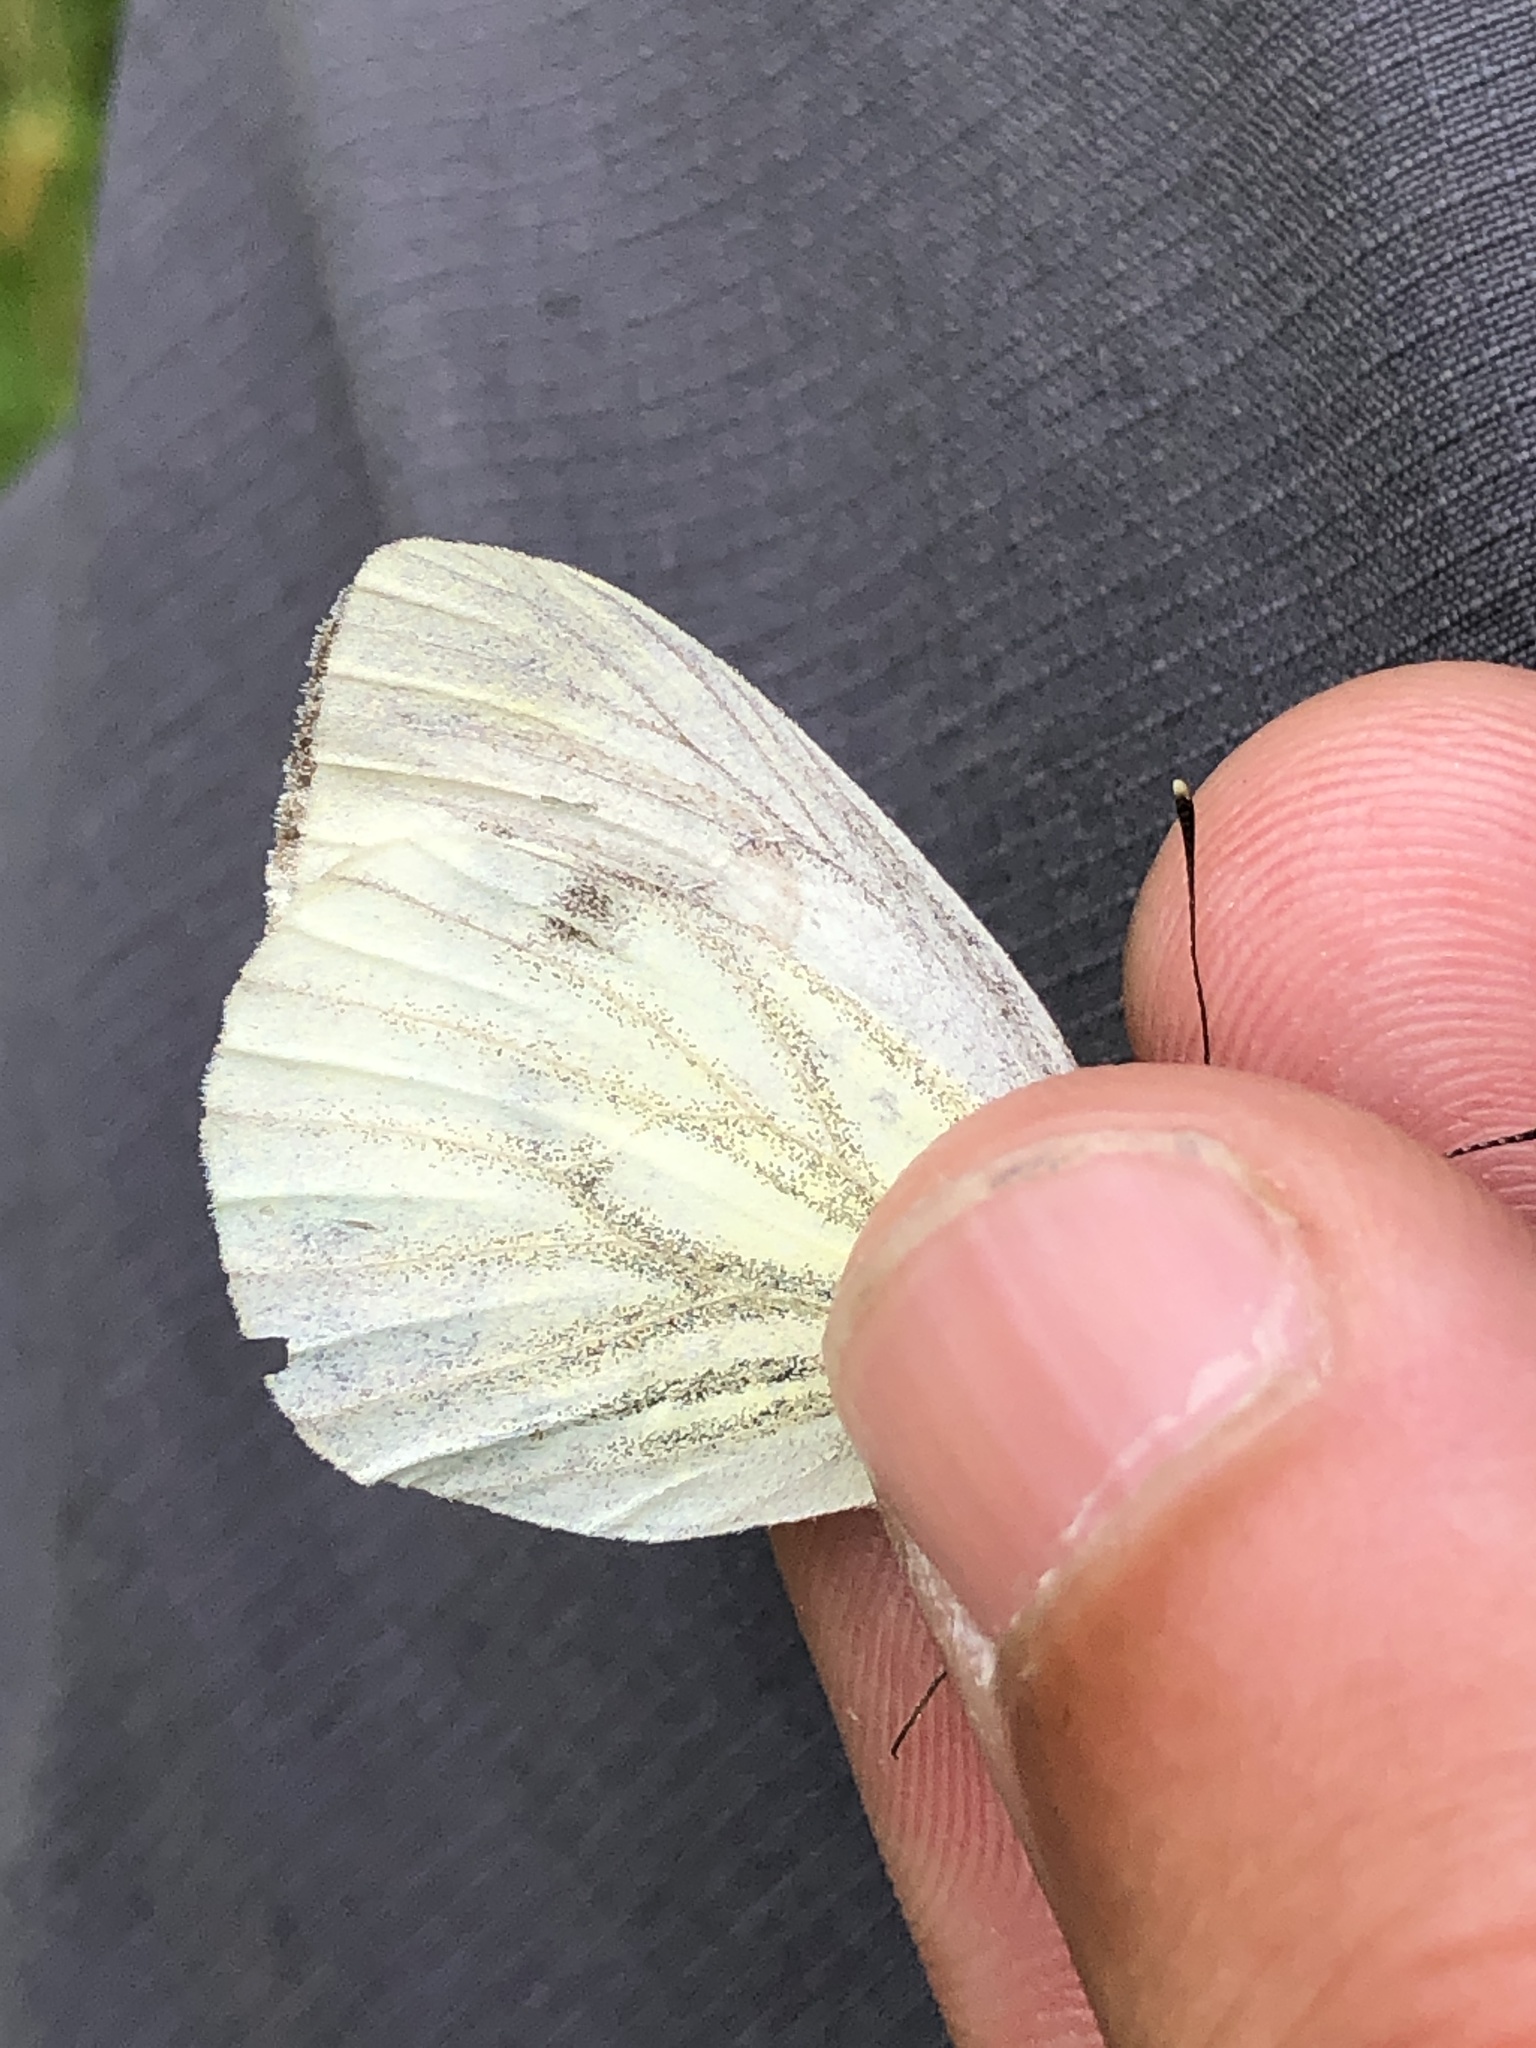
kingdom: Animalia
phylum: Arthropoda
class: Insecta
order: Lepidoptera
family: Pieridae
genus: Pieris
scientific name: Pieris napi
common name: Green-veined white
